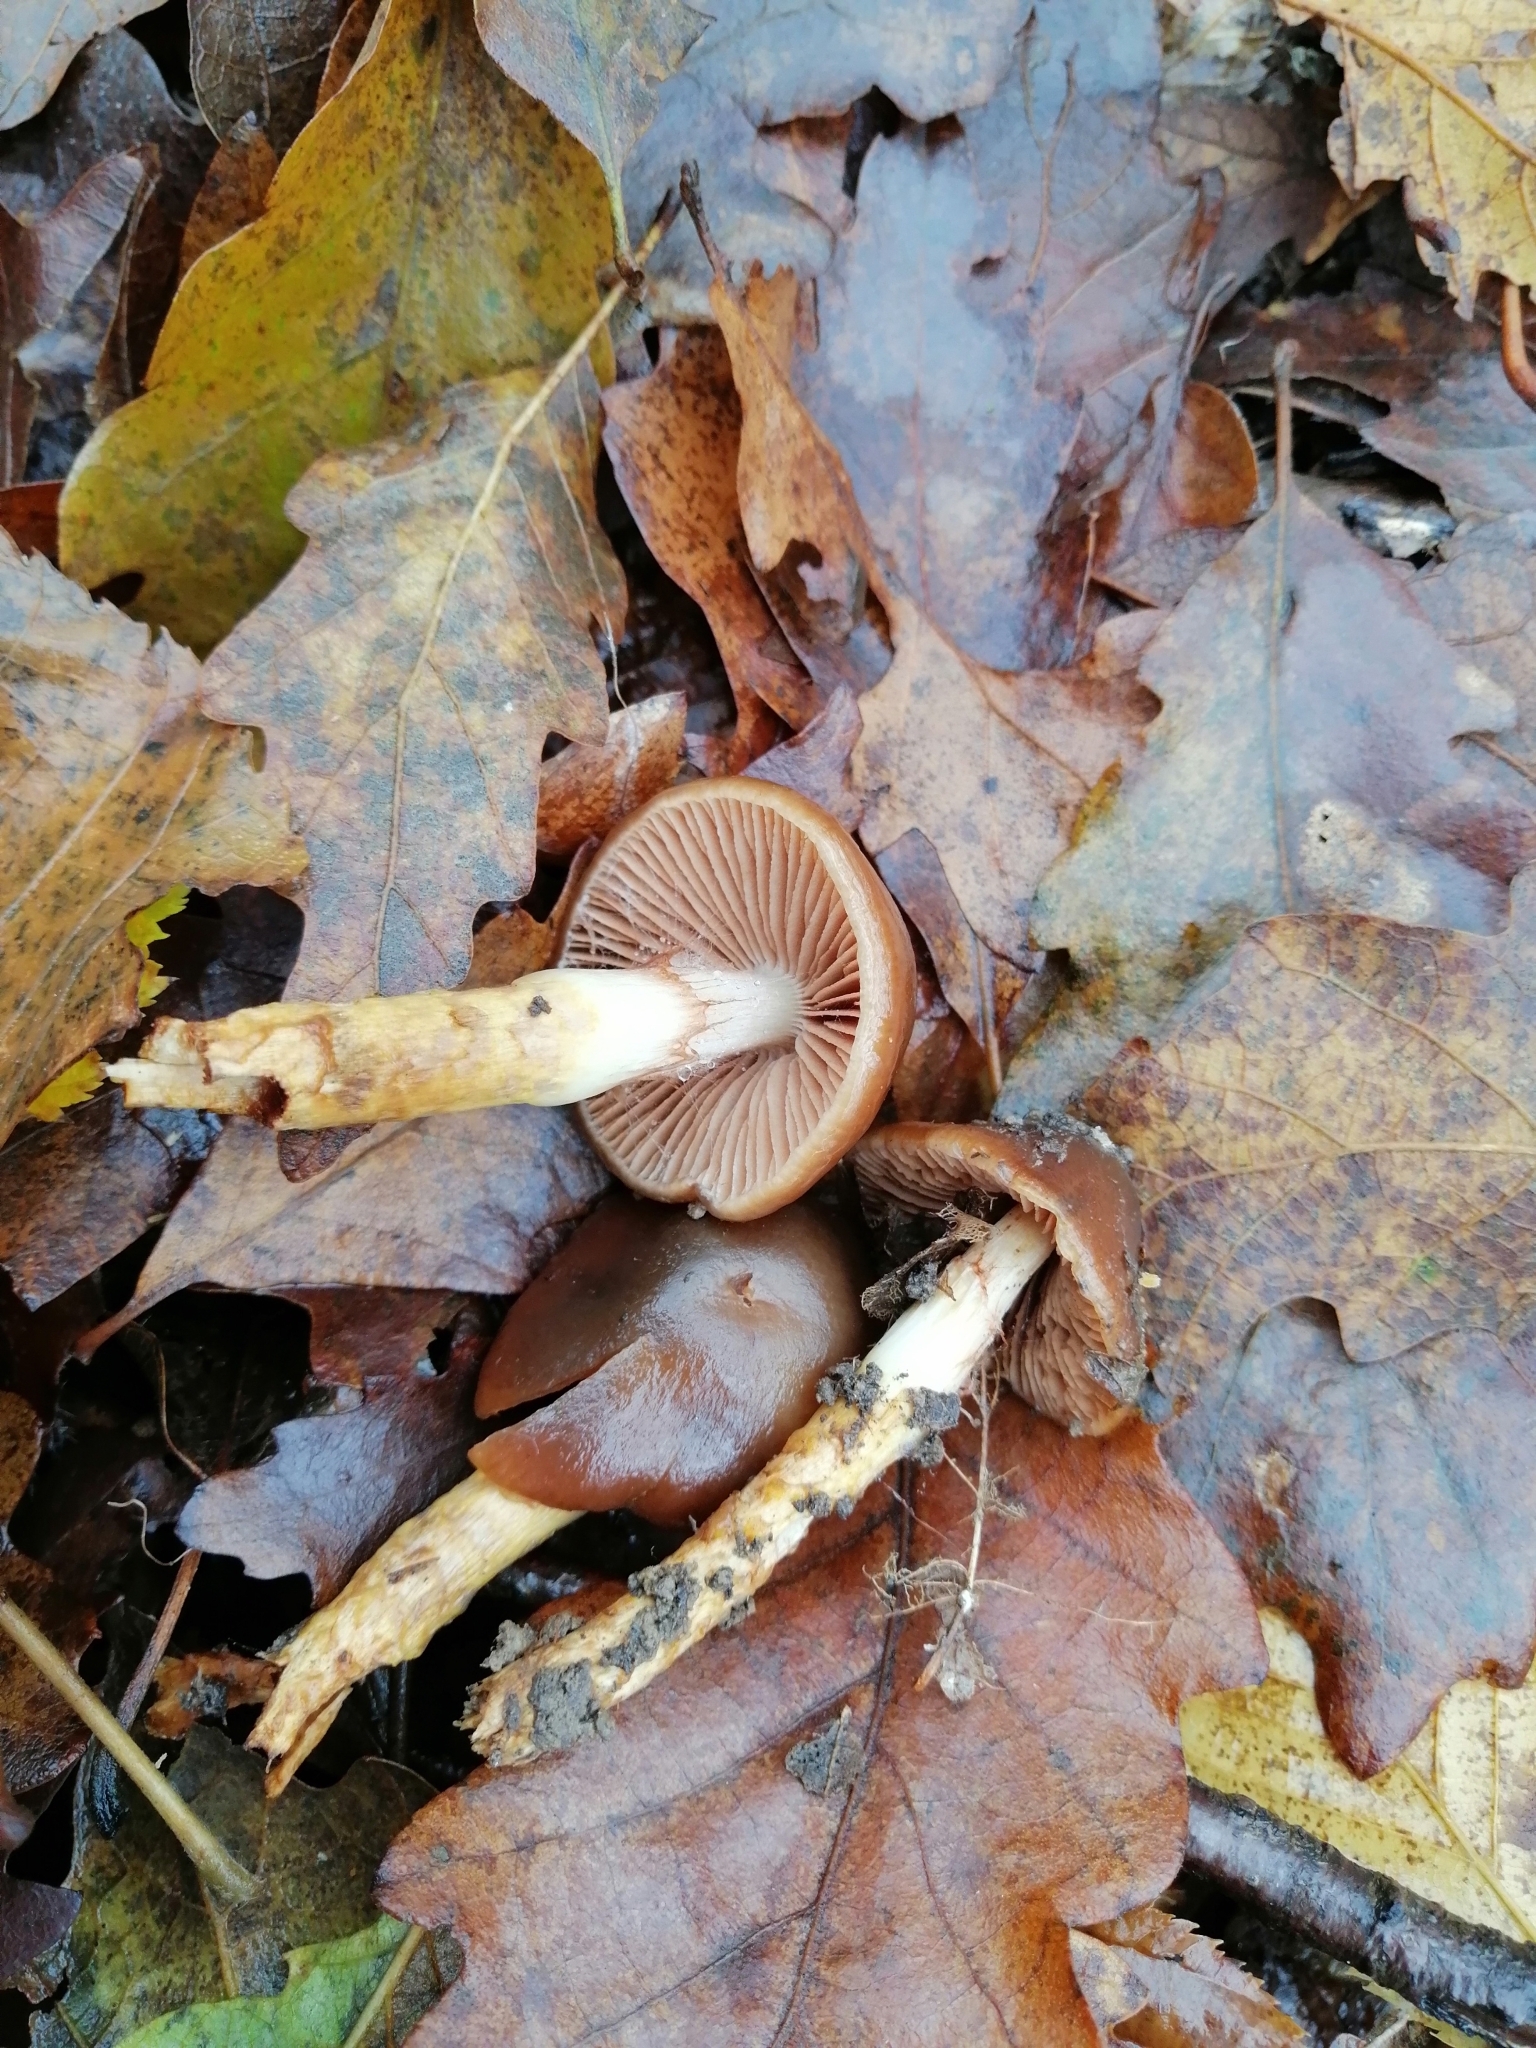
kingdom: Fungi
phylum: Basidiomycota
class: Agaricomycetes
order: Agaricales
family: Cortinariaceae
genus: Cortinarius
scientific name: Cortinarius trivialis
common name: Girdled webcap
